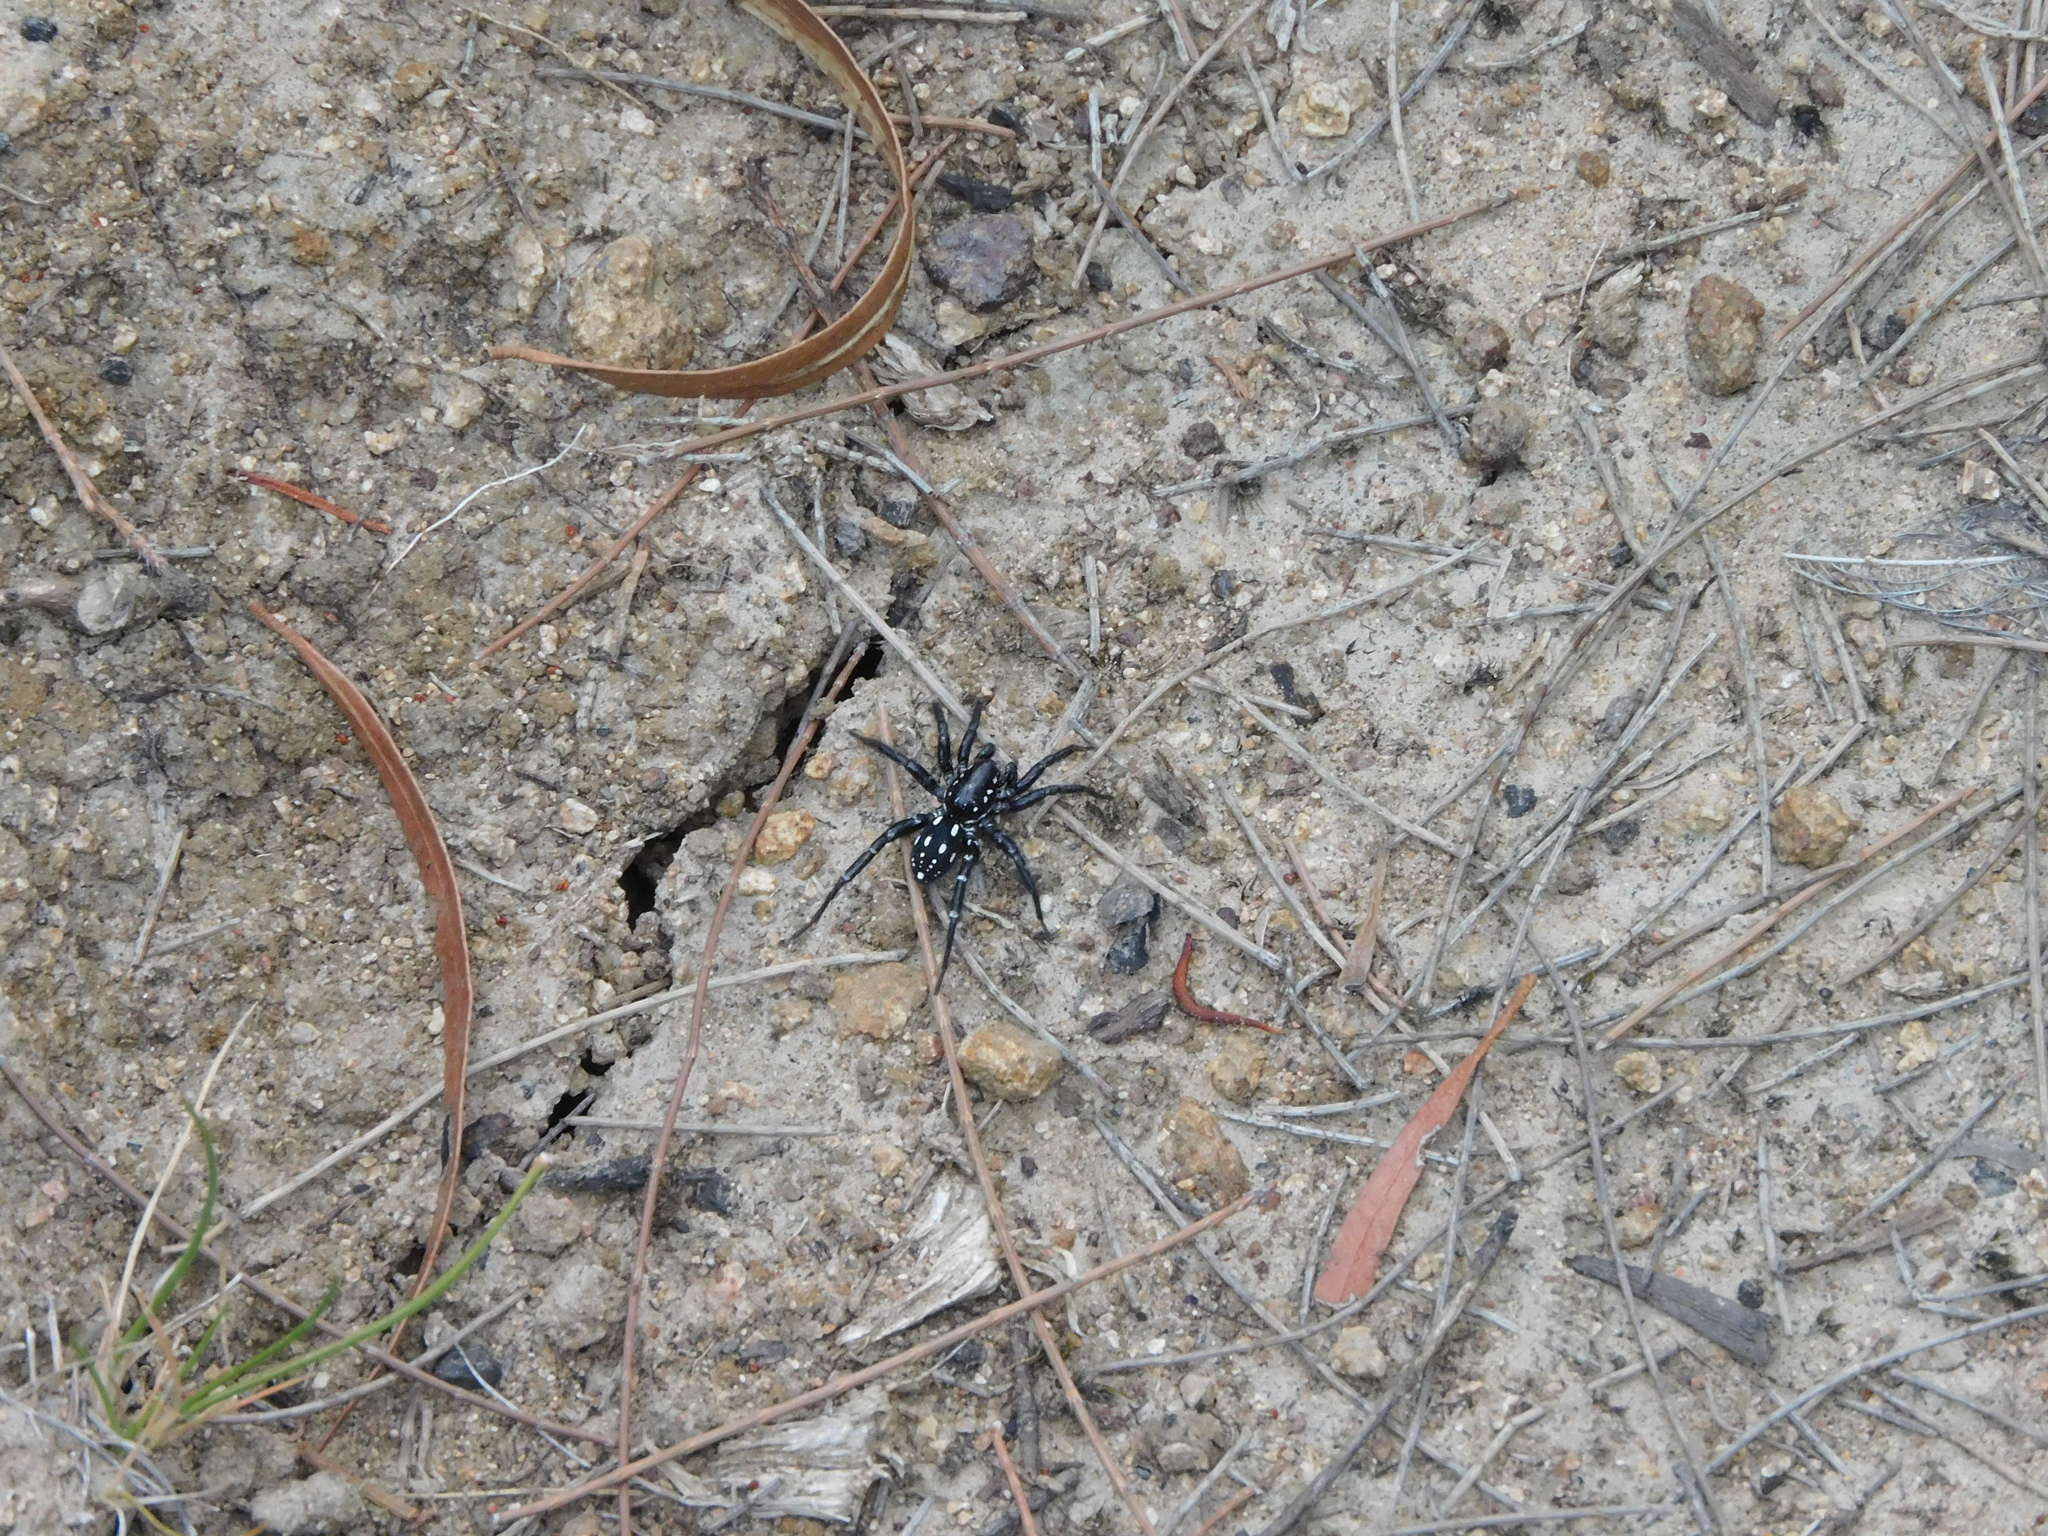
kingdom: Animalia
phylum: Arthropoda
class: Arachnida
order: Araneae
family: Corinnidae
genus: Nyssus
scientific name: Nyssus albopunctatus
